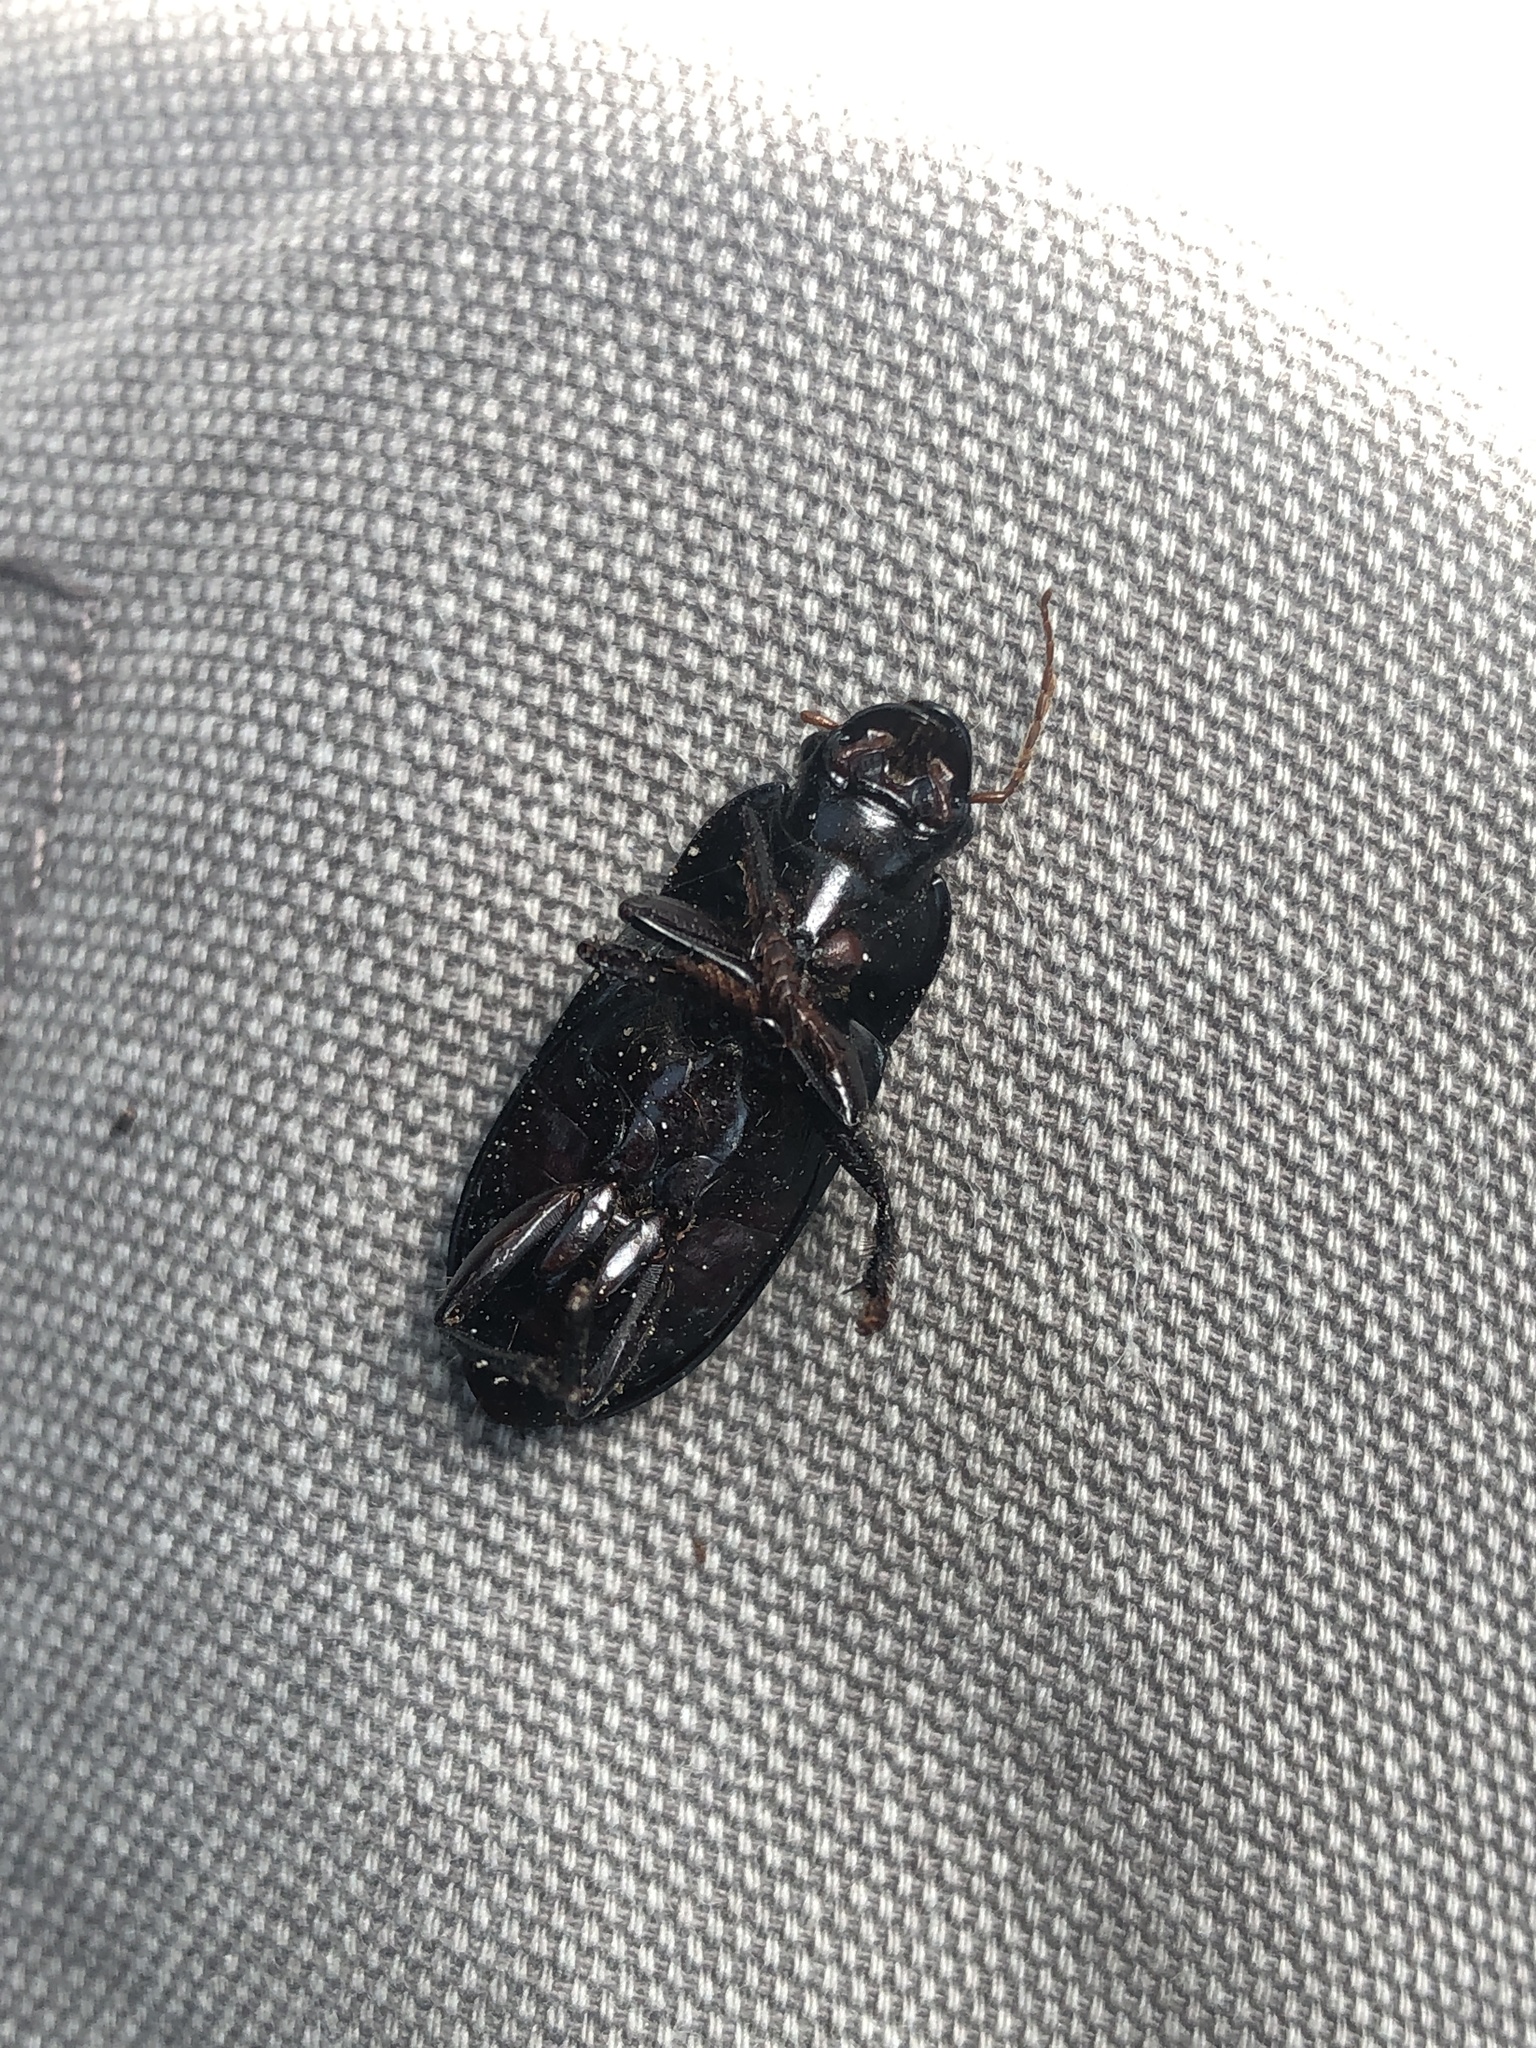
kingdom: Animalia
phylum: Arthropoda
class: Insecta
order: Coleoptera
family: Carabidae
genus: Harpalus
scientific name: Harpalus caliginosus
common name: Murky ground beetle
